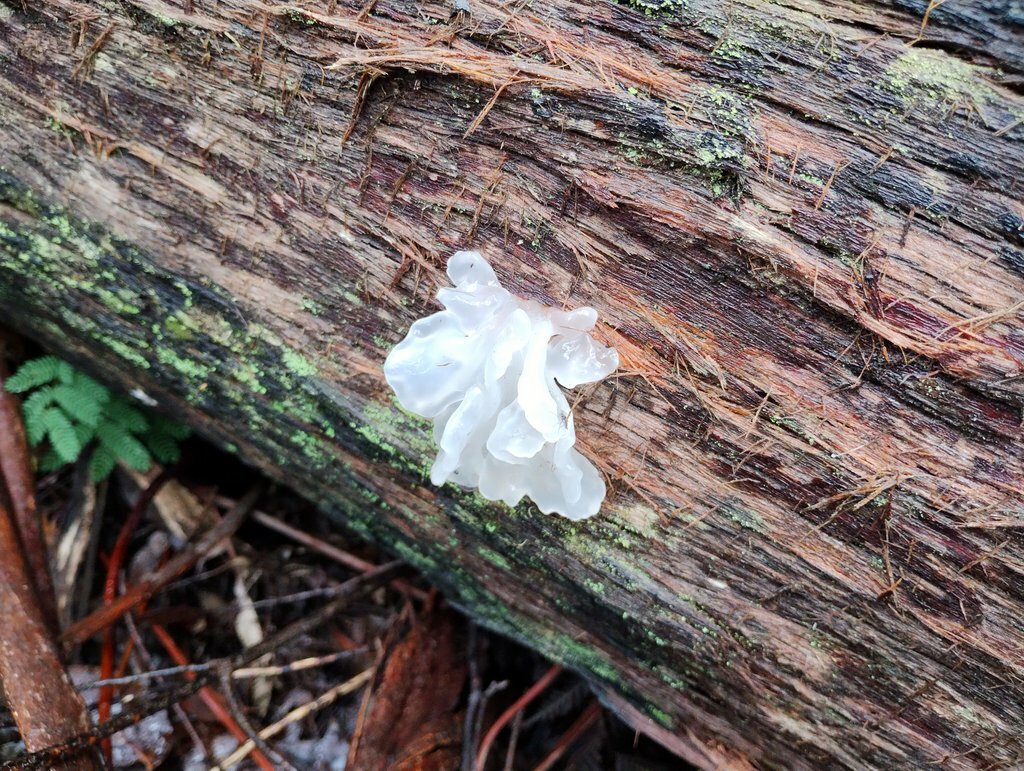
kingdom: Fungi
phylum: Basidiomycota
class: Tremellomycetes
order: Tremellales
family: Tremellaceae
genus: Tremella
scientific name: Tremella fuciformis
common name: Snow fungus
